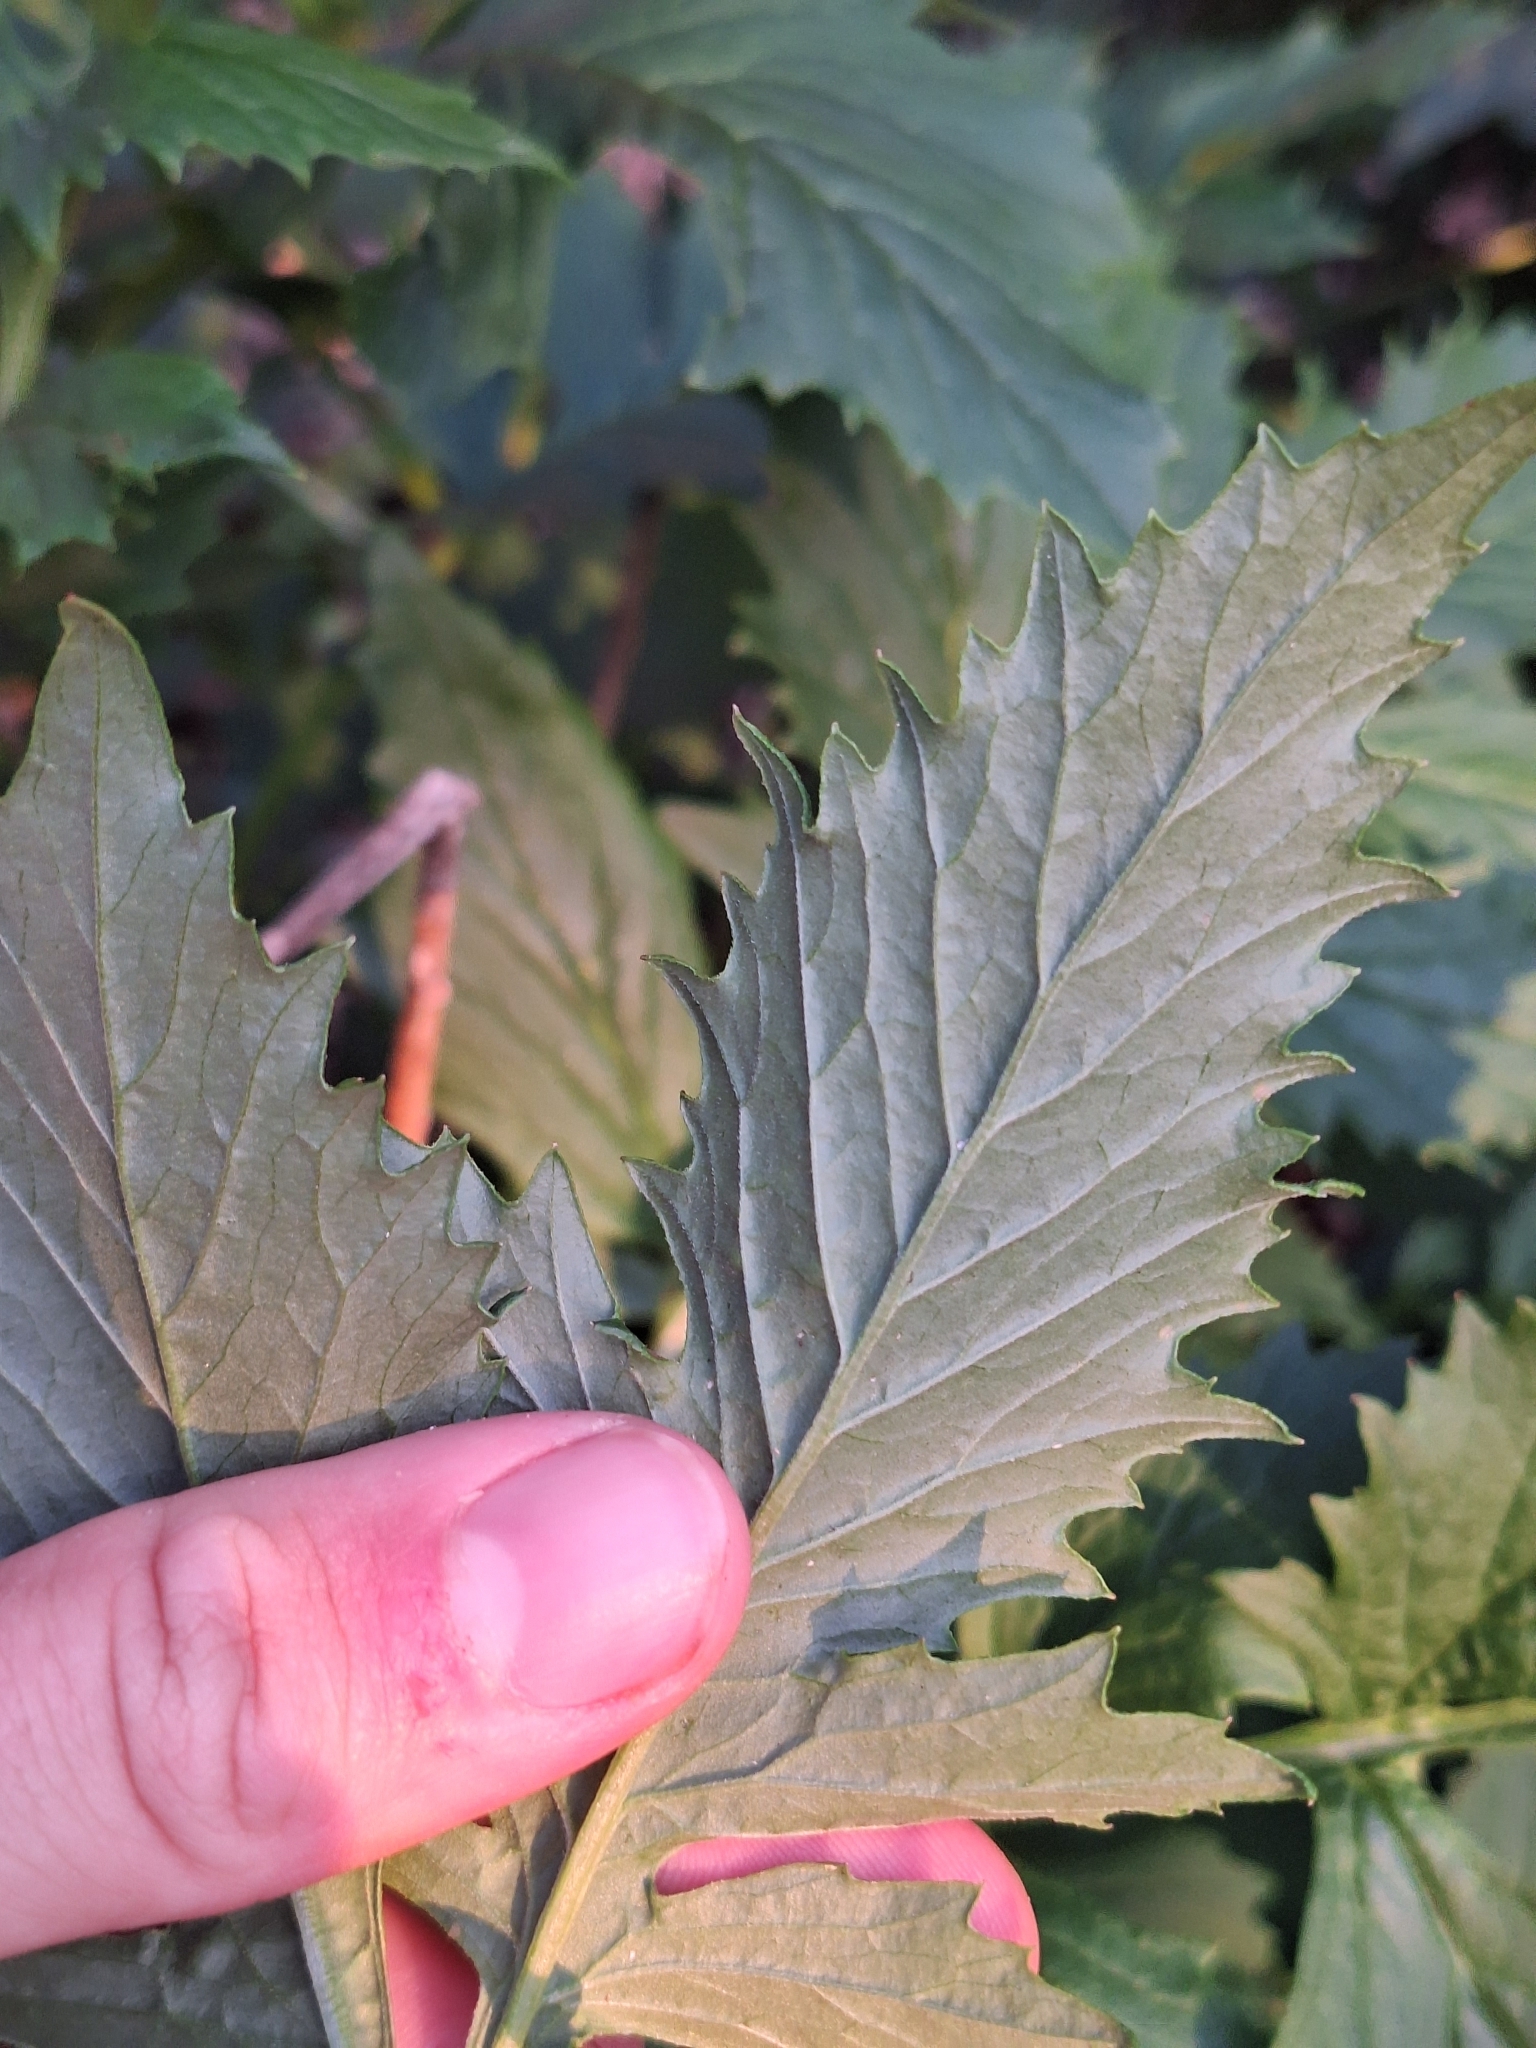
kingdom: Plantae
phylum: Tracheophyta
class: Magnoliopsida
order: Asterales
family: Asteraceae
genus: Erechtites
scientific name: Erechtites valerianifolius
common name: Tropical burnweed
